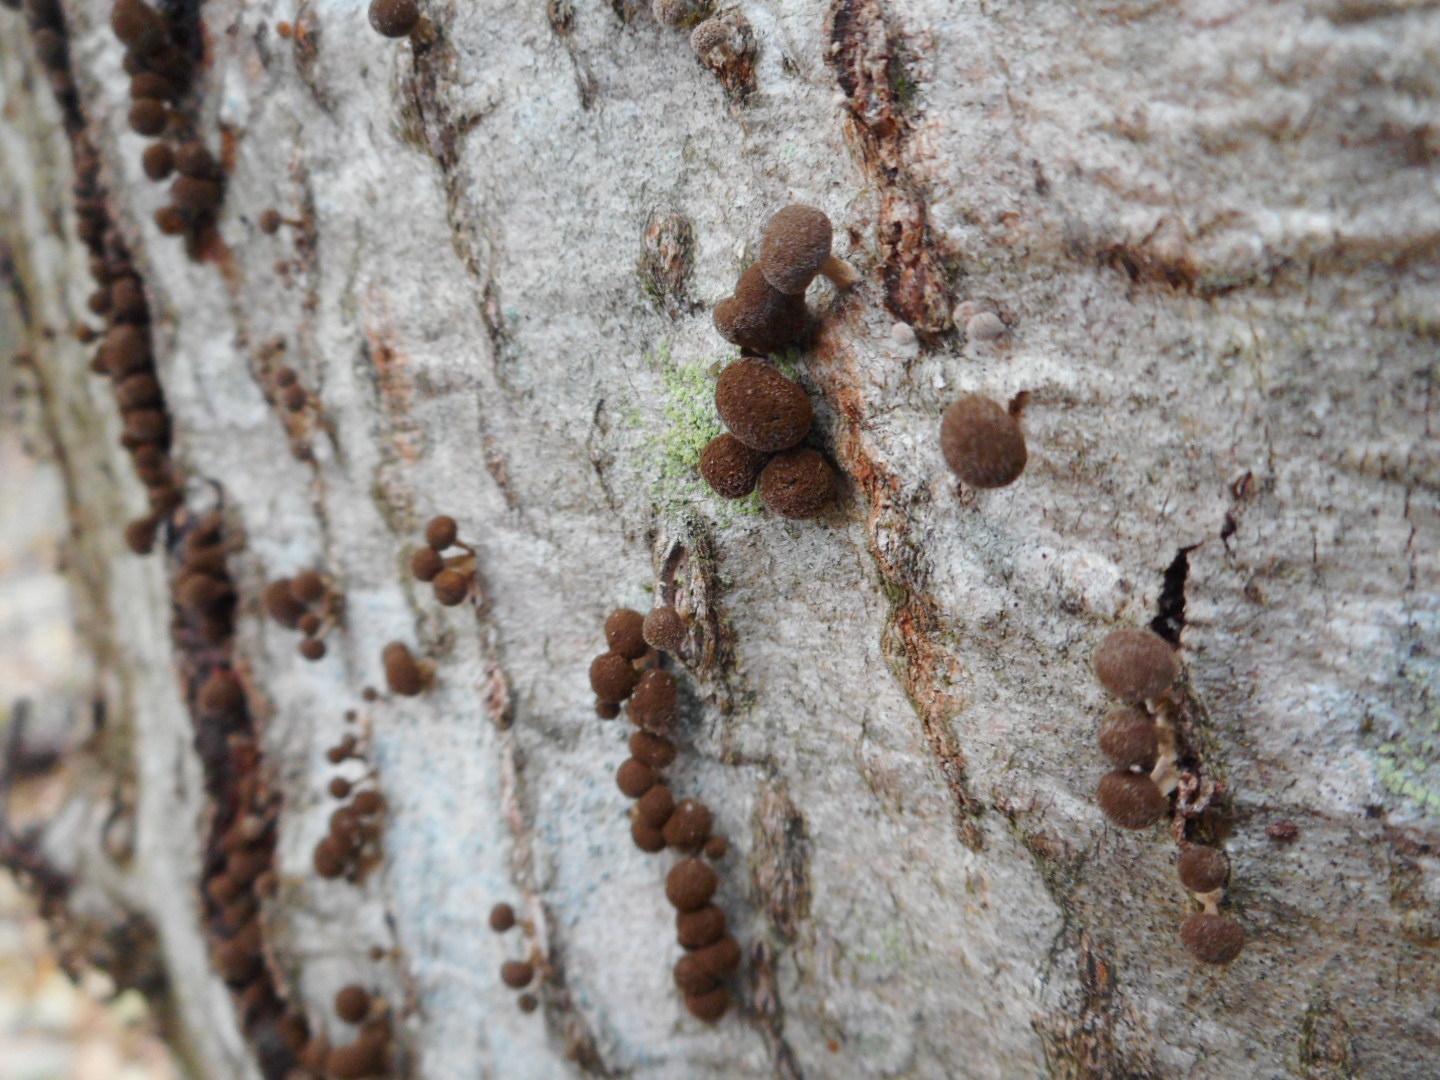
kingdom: Fungi
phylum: Basidiomycota
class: Atractiellomycetes
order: Atractiellales
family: Phleogenaceae
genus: Phleogena
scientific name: Phleogena faginea
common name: Fenugreek stalkball
